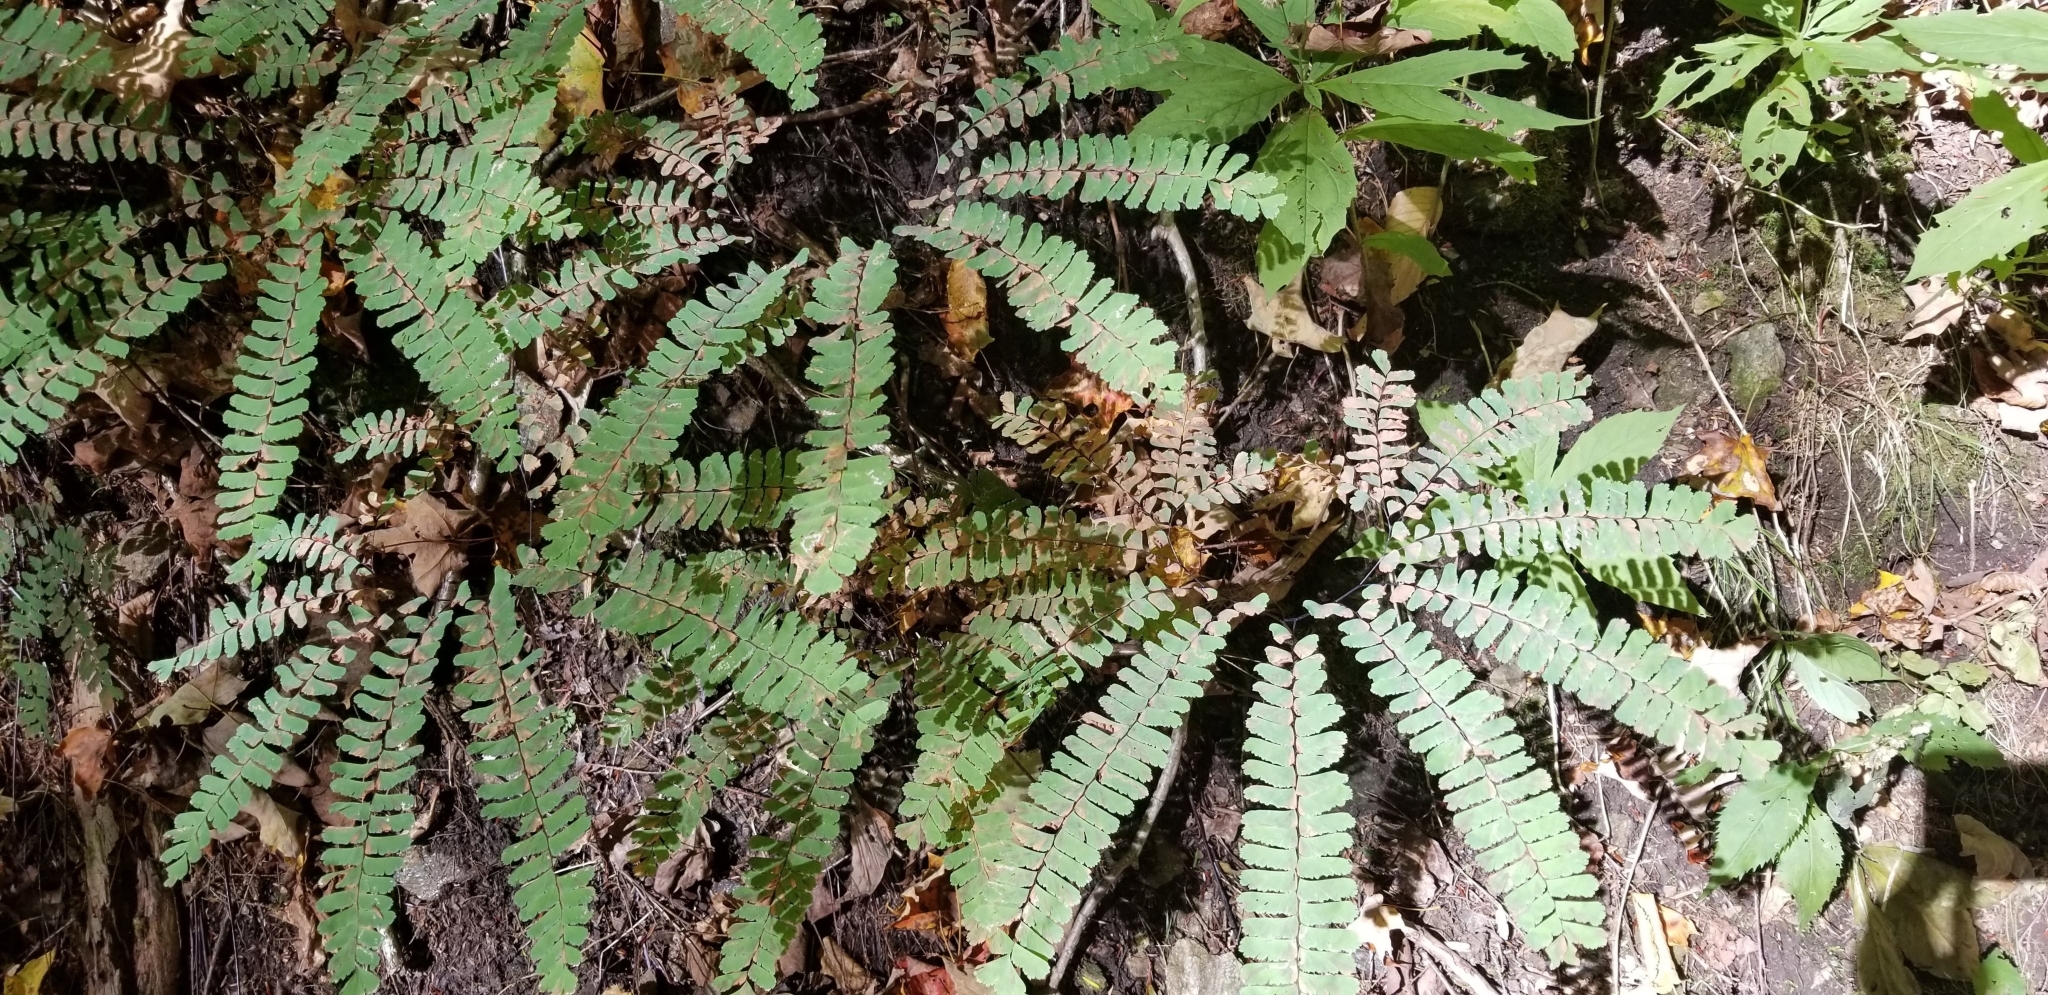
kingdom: Plantae
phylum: Tracheophyta
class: Polypodiopsida
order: Polypodiales
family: Pteridaceae
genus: Adiantum
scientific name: Adiantum pedatum
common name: Five-finger fern
